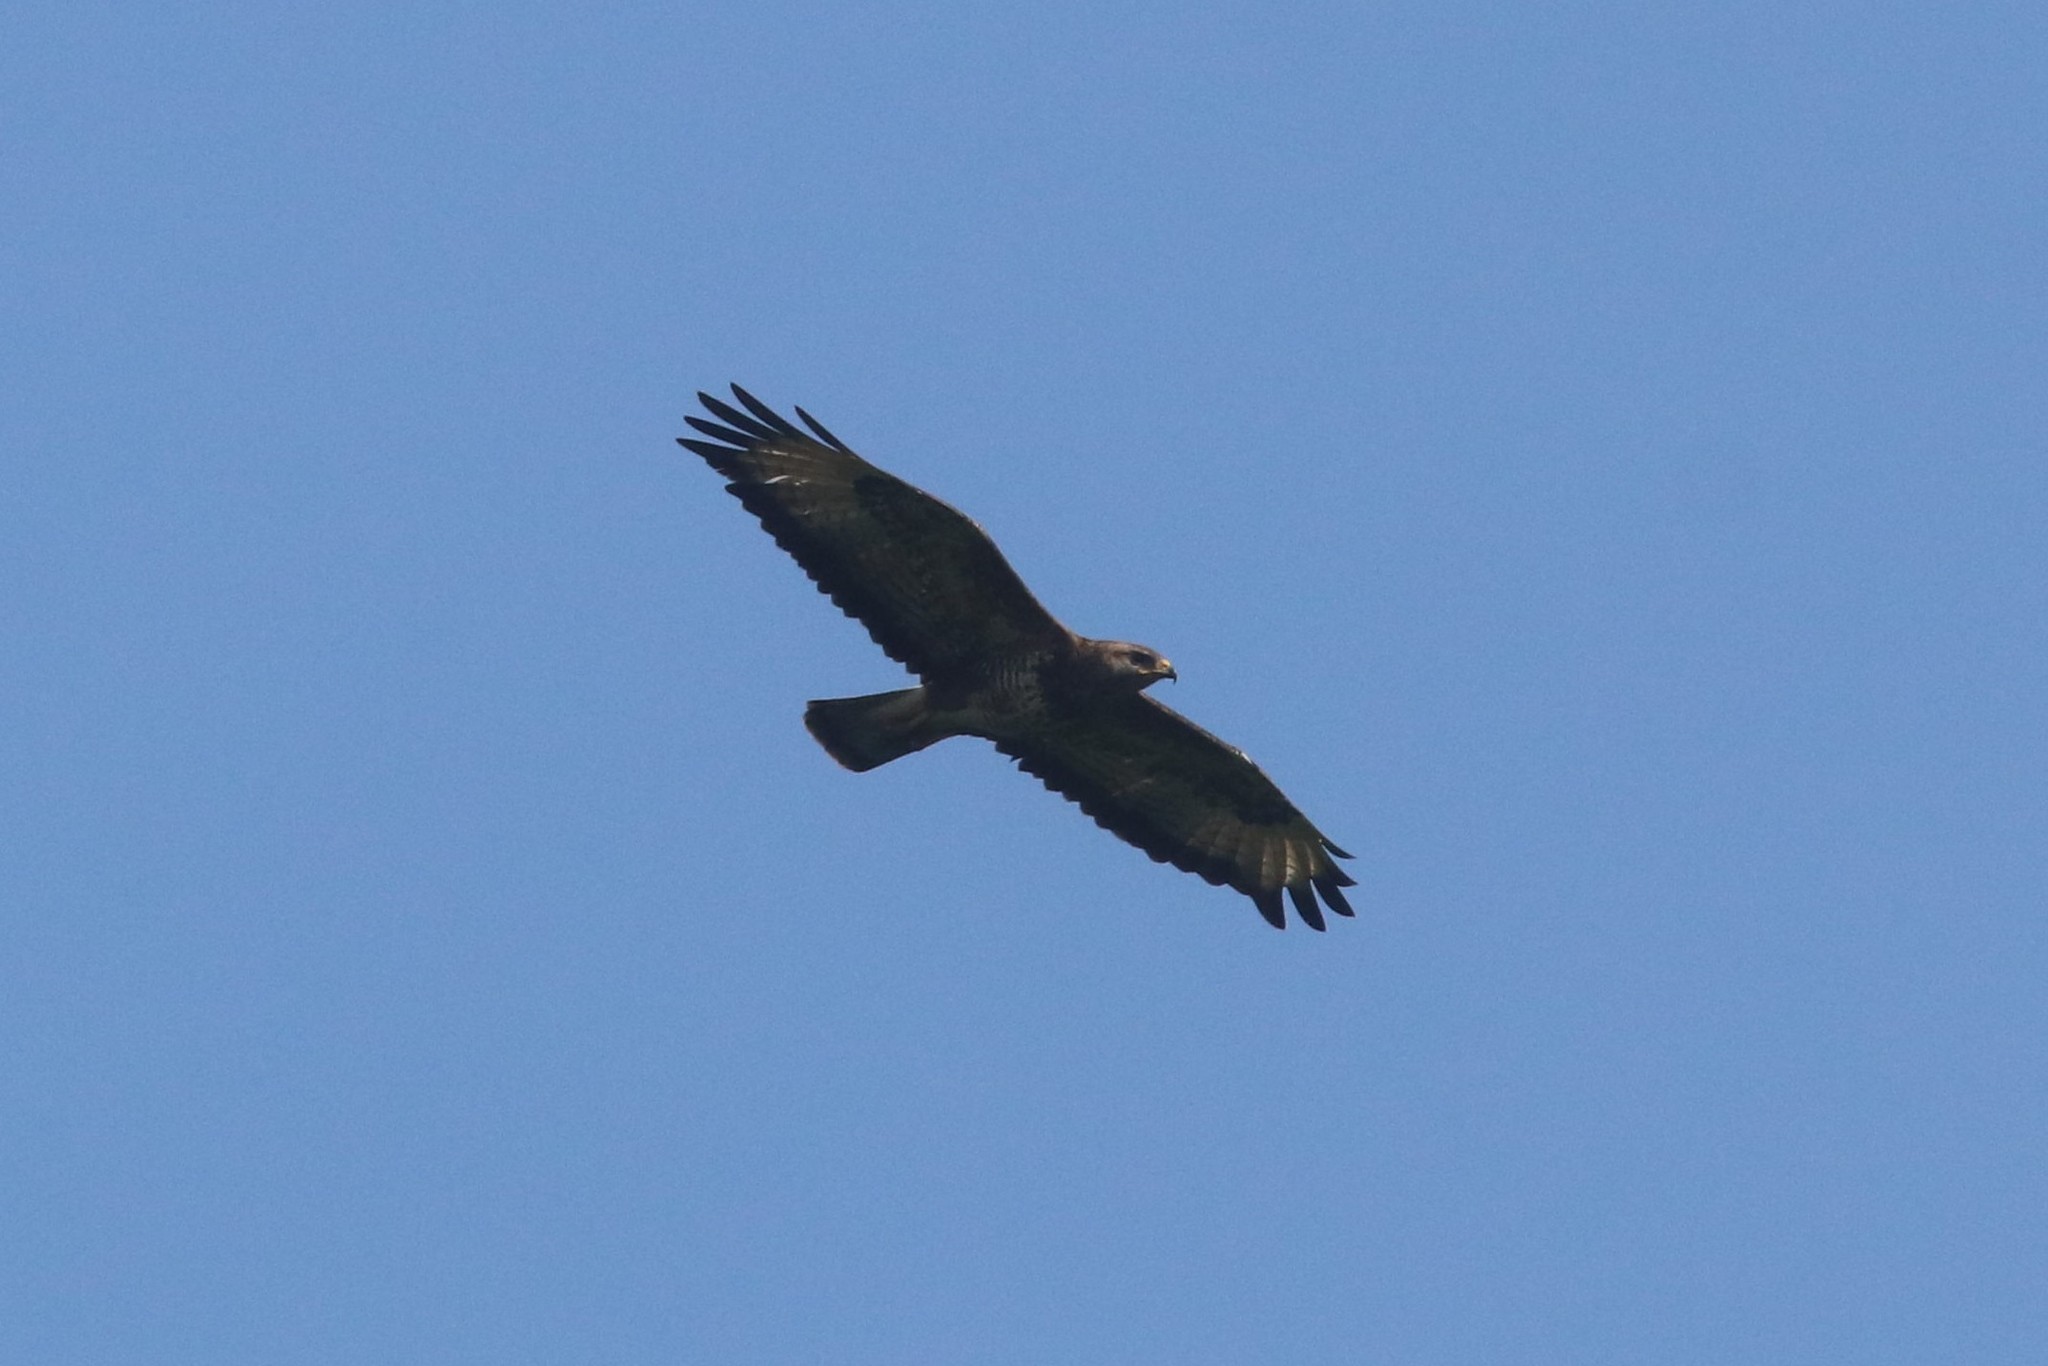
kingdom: Animalia
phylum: Chordata
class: Aves
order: Accipitriformes
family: Accipitridae
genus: Buteo
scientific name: Buteo buteo
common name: Common buzzard
